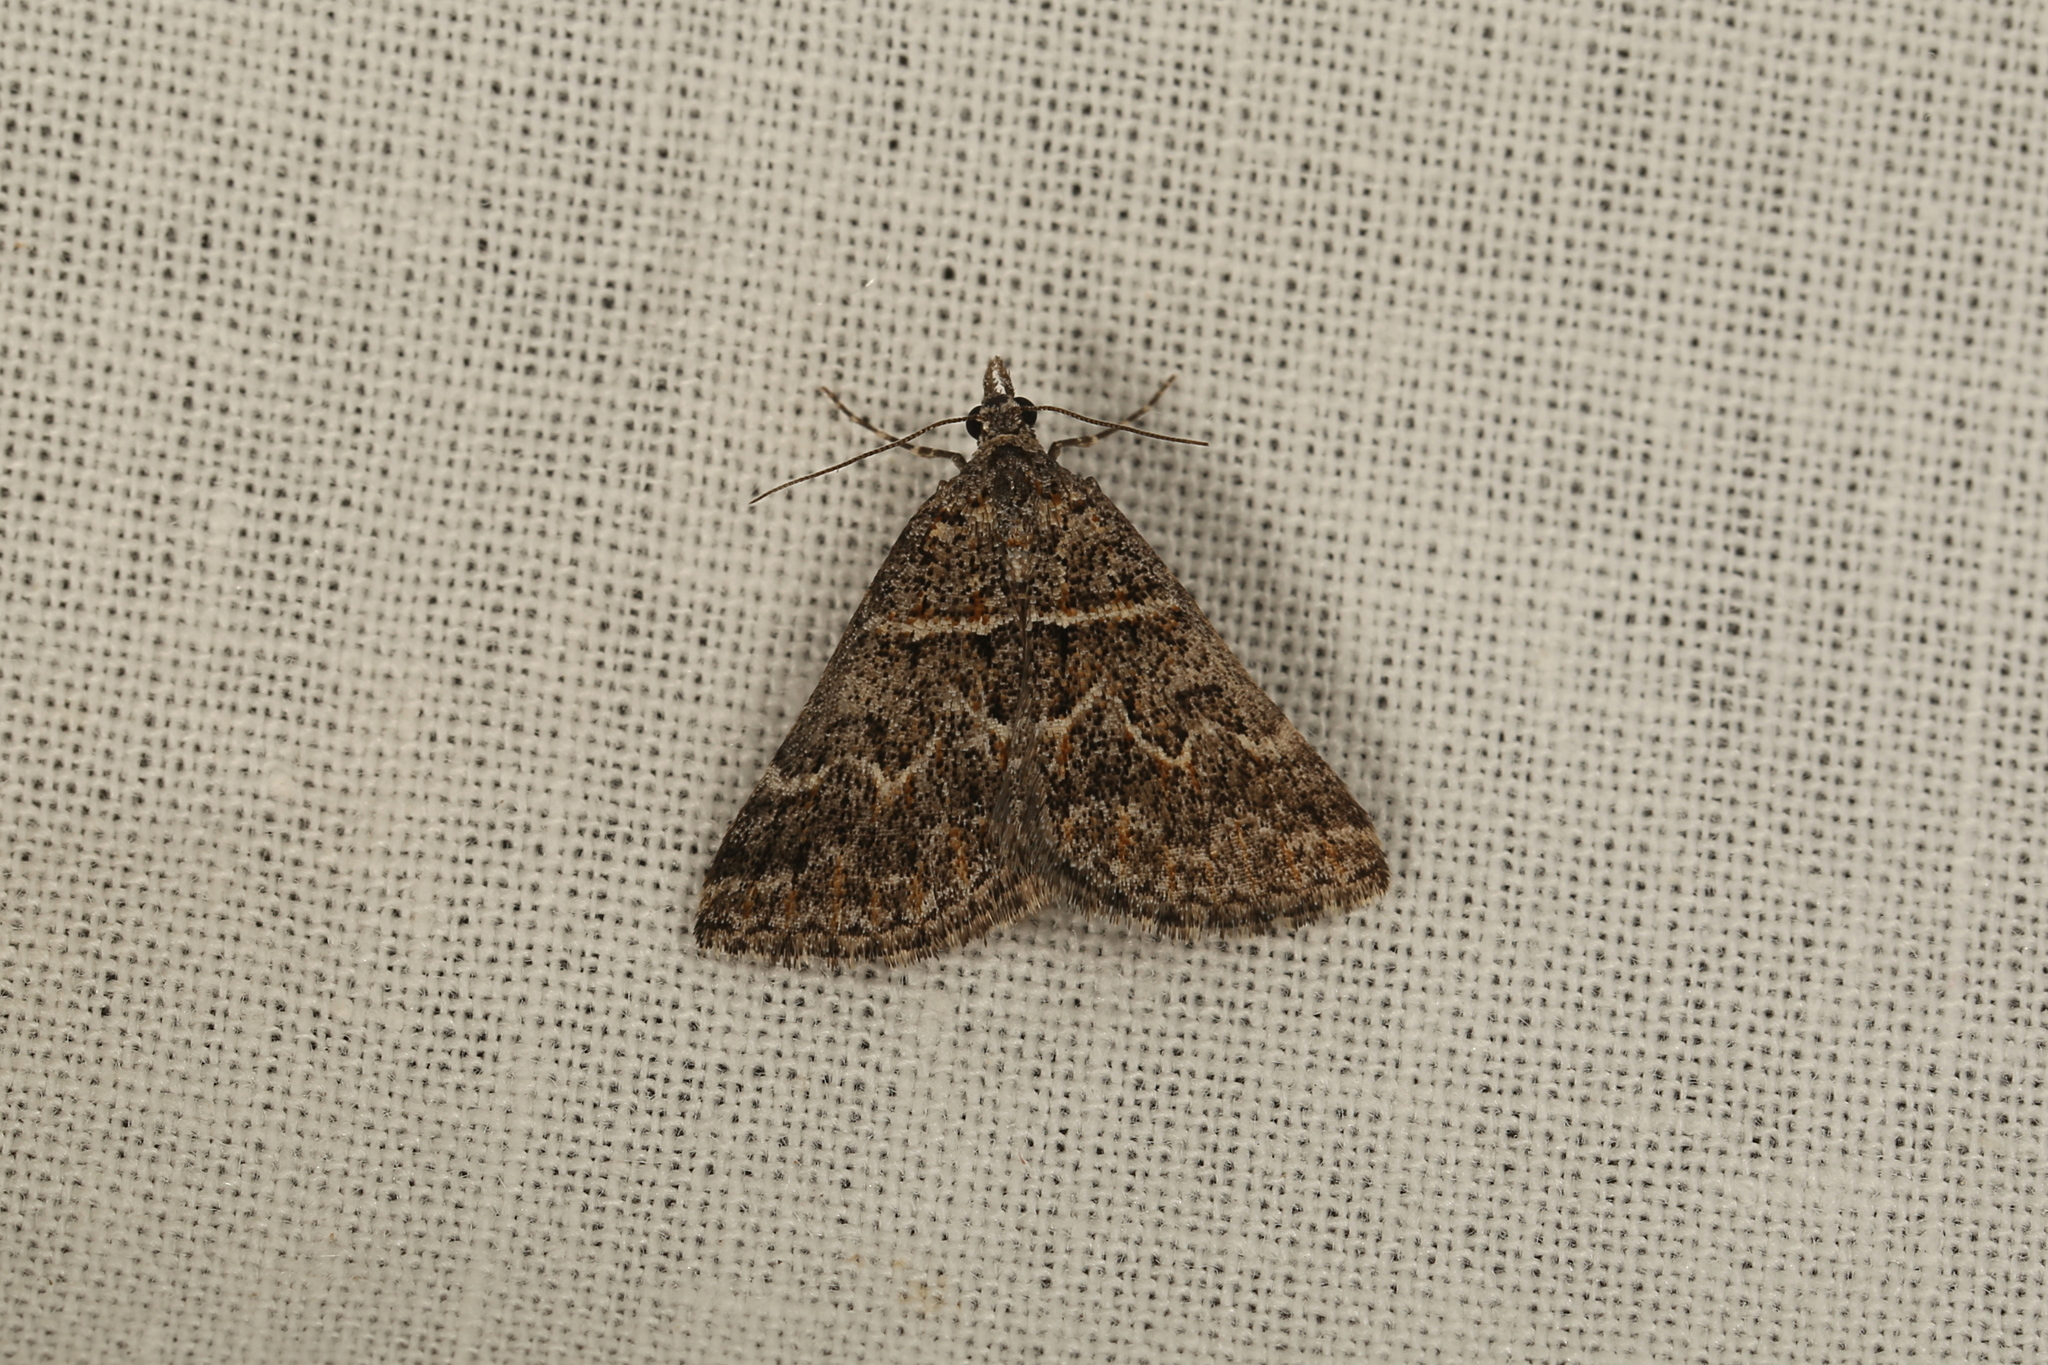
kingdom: Animalia
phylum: Arthropoda
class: Insecta
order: Lepidoptera
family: Geometridae
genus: Dichromodes
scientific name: Dichromodes explanata
